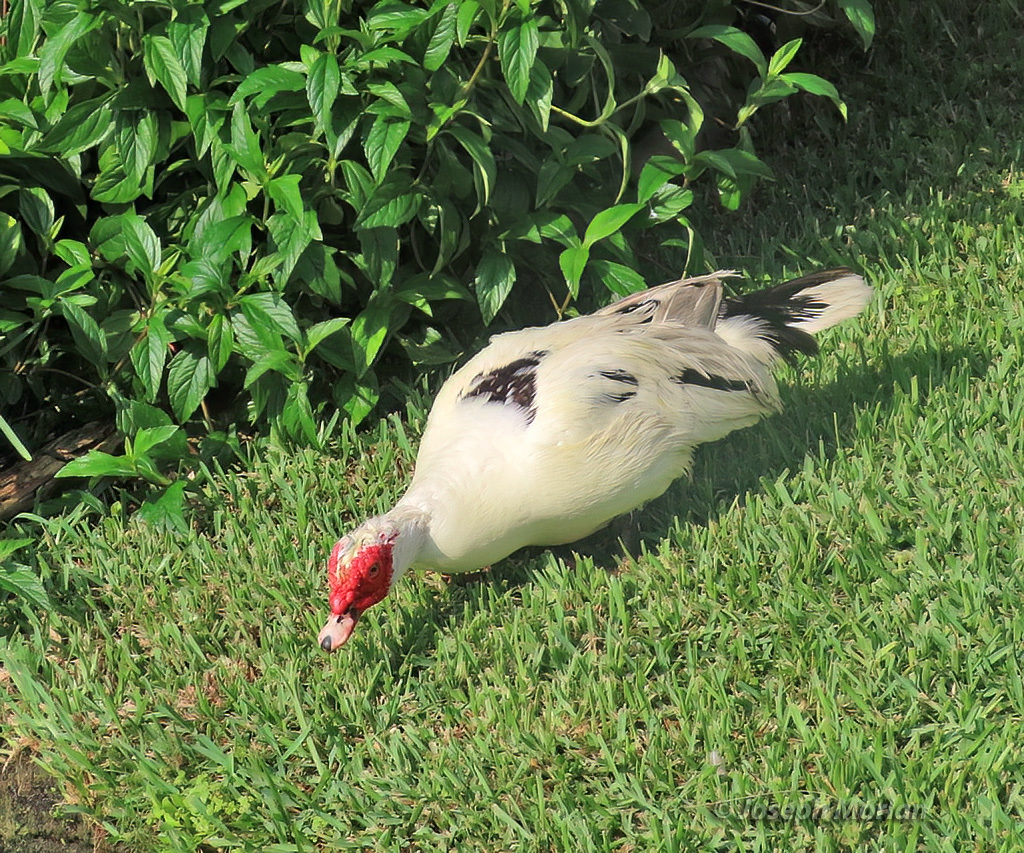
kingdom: Animalia
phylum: Chordata
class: Aves
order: Anseriformes
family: Anatidae
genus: Cairina
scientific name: Cairina moschata
